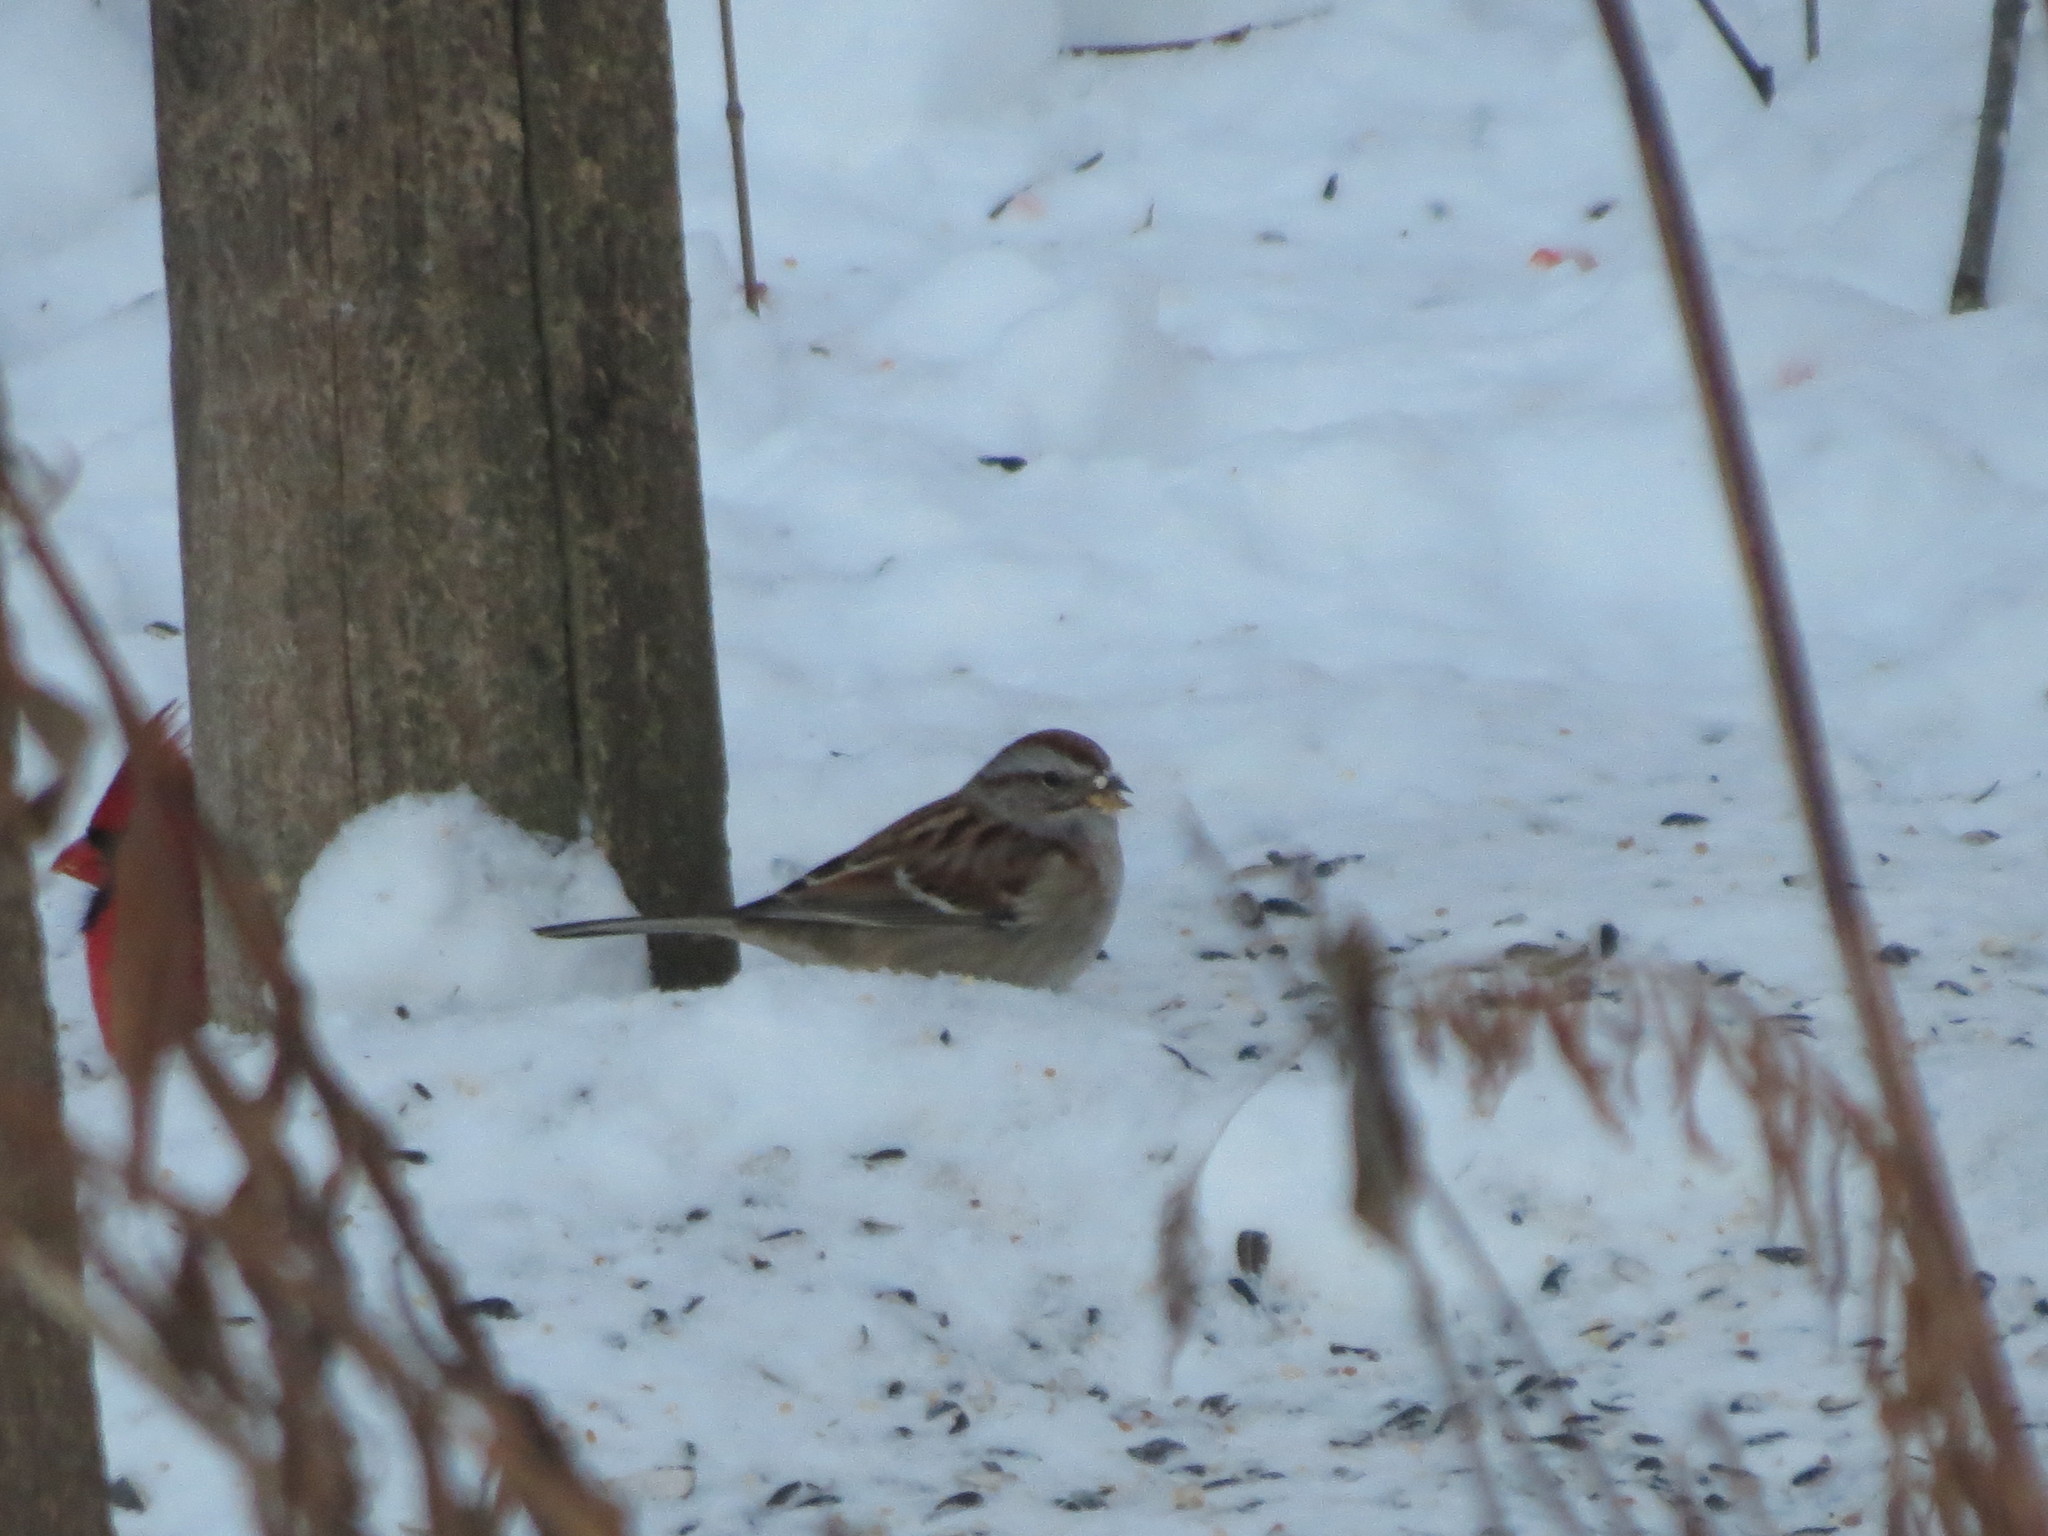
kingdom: Animalia
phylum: Chordata
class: Aves
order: Passeriformes
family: Passerellidae
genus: Spizelloides
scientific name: Spizelloides arborea
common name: American tree sparrow
